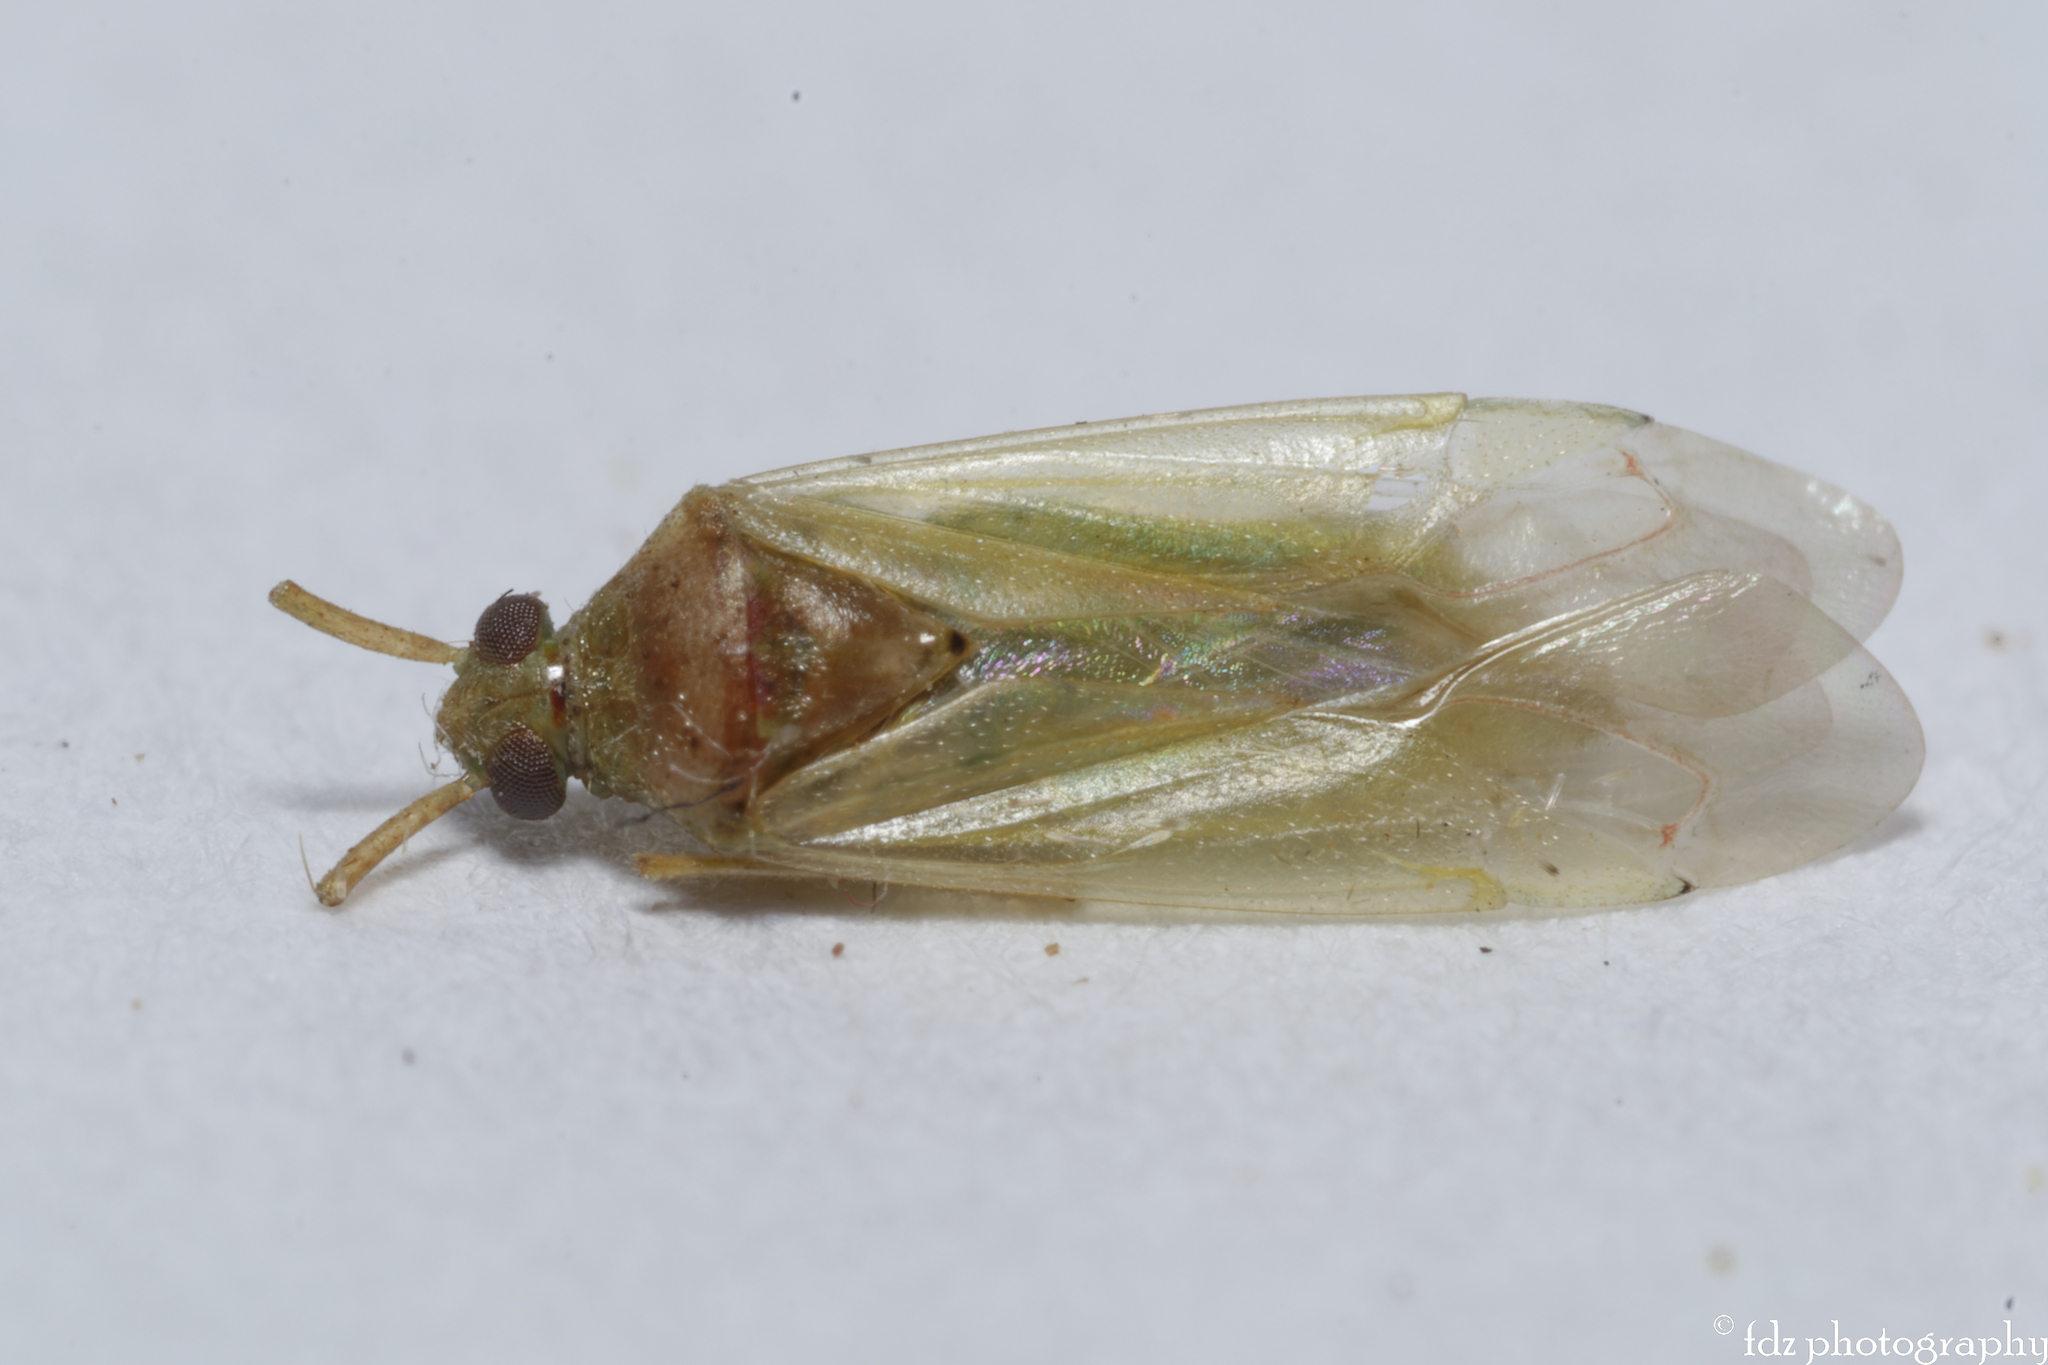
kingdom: Animalia
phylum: Arthropoda
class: Insecta
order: Hemiptera
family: Miridae
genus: Creontiades
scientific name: Creontiades pallidus
